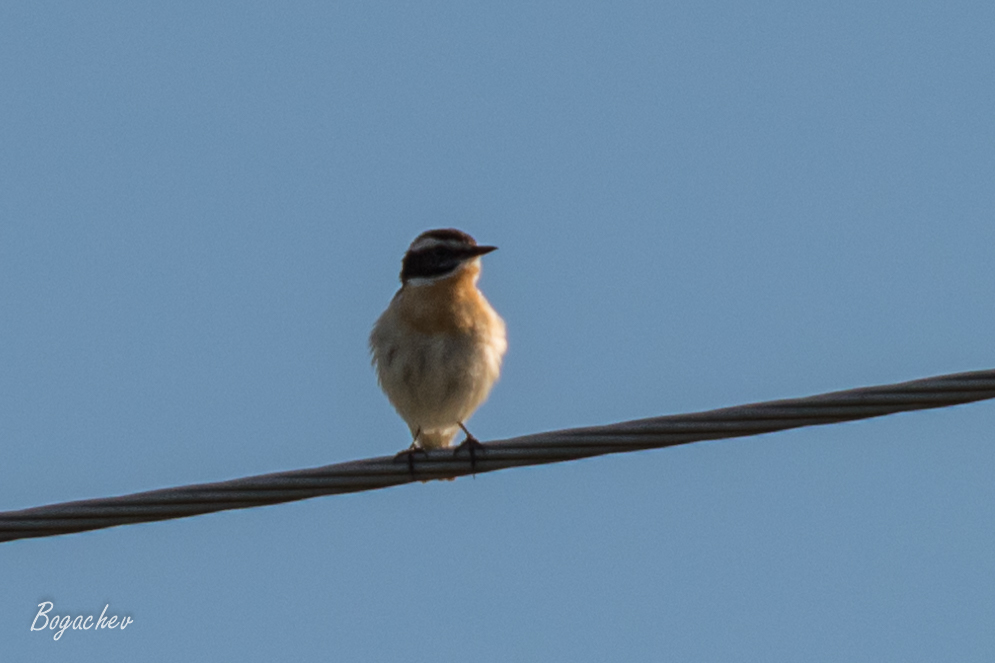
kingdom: Animalia
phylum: Chordata
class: Aves
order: Passeriformes
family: Muscicapidae
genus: Saxicola
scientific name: Saxicola rubetra
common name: Whinchat
